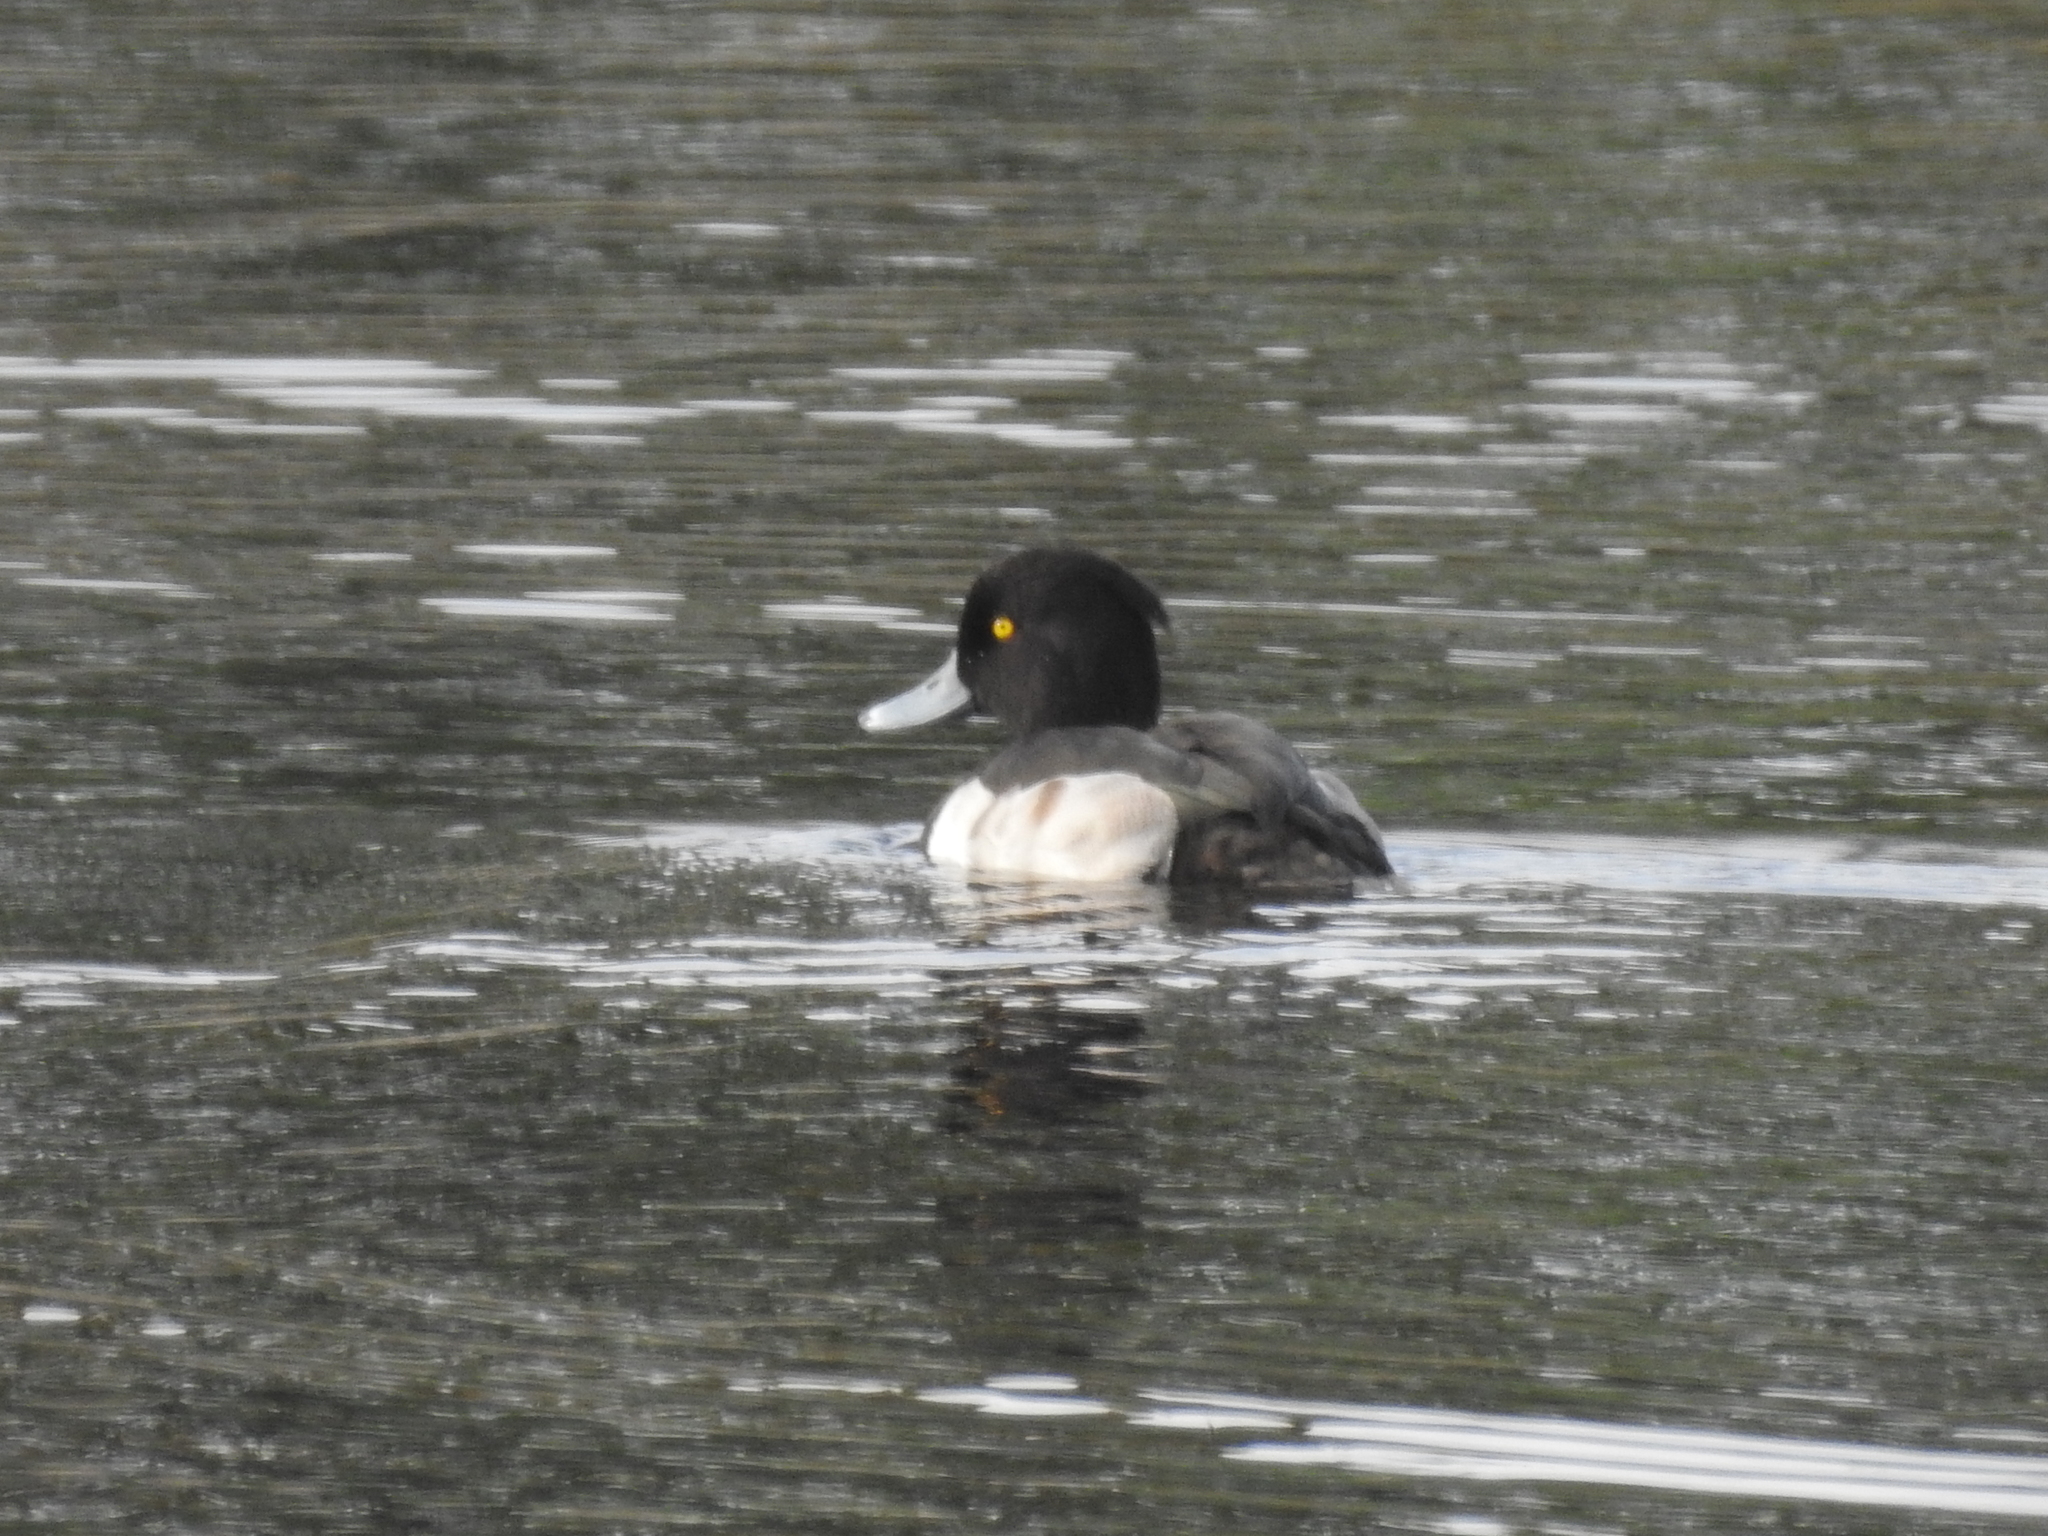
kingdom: Animalia
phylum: Chordata
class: Aves
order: Anseriformes
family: Anatidae
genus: Aythya
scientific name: Aythya fuligula
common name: Tufted duck
